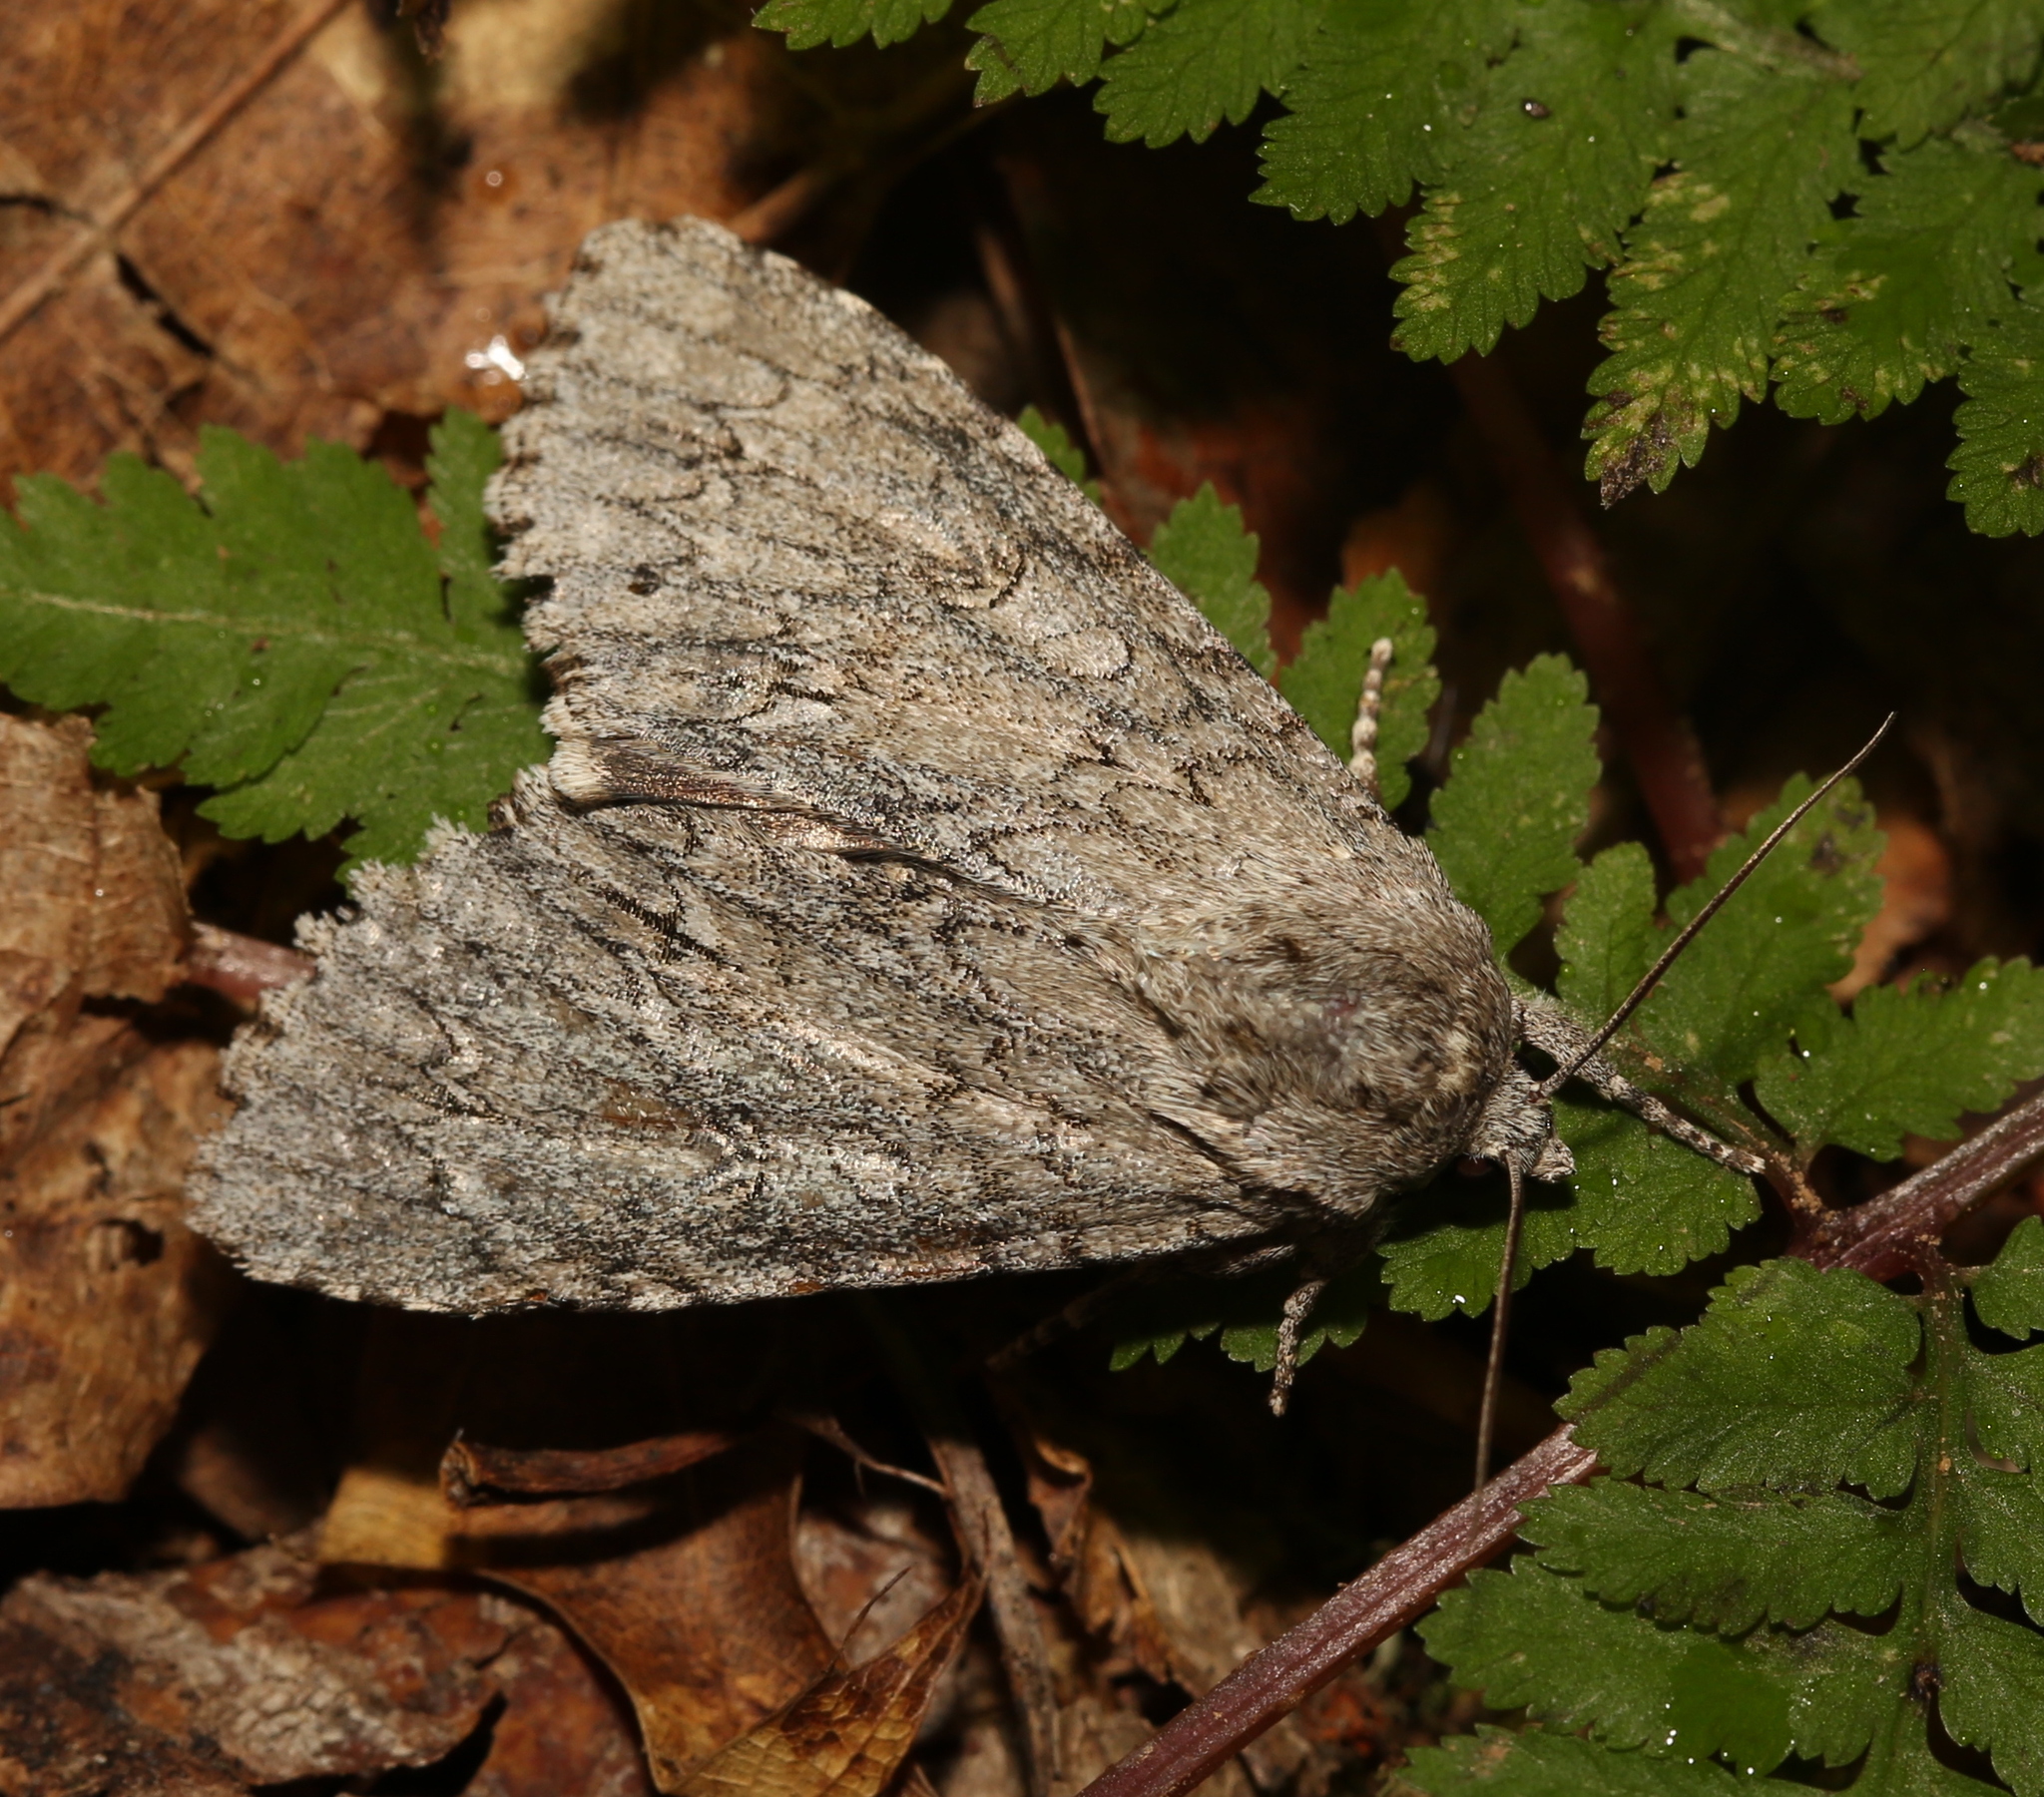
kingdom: Animalia
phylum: Arthropoda
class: Insecta
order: Lepidoptera
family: Noctuidae
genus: Acronicta
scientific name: Acronicta americana
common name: American dagger
